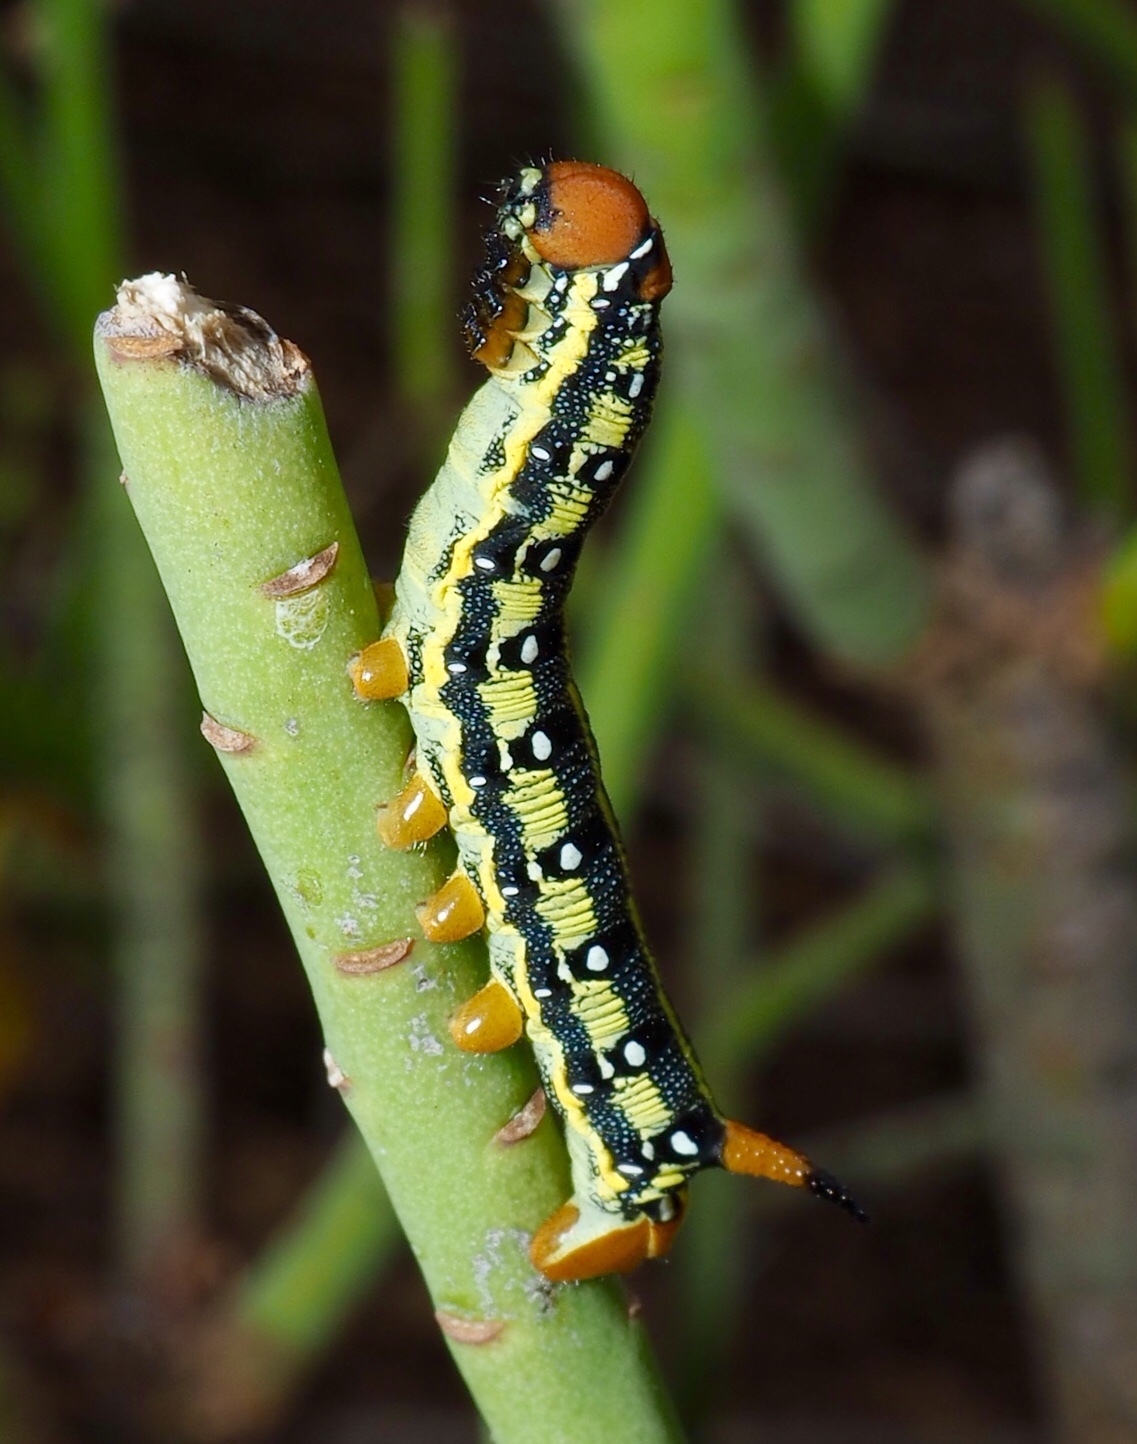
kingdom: Animalia
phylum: Arthropoda
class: Insecta
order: Lepidoptera
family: Sphingidae
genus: Hyles
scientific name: Hyles tithymali
